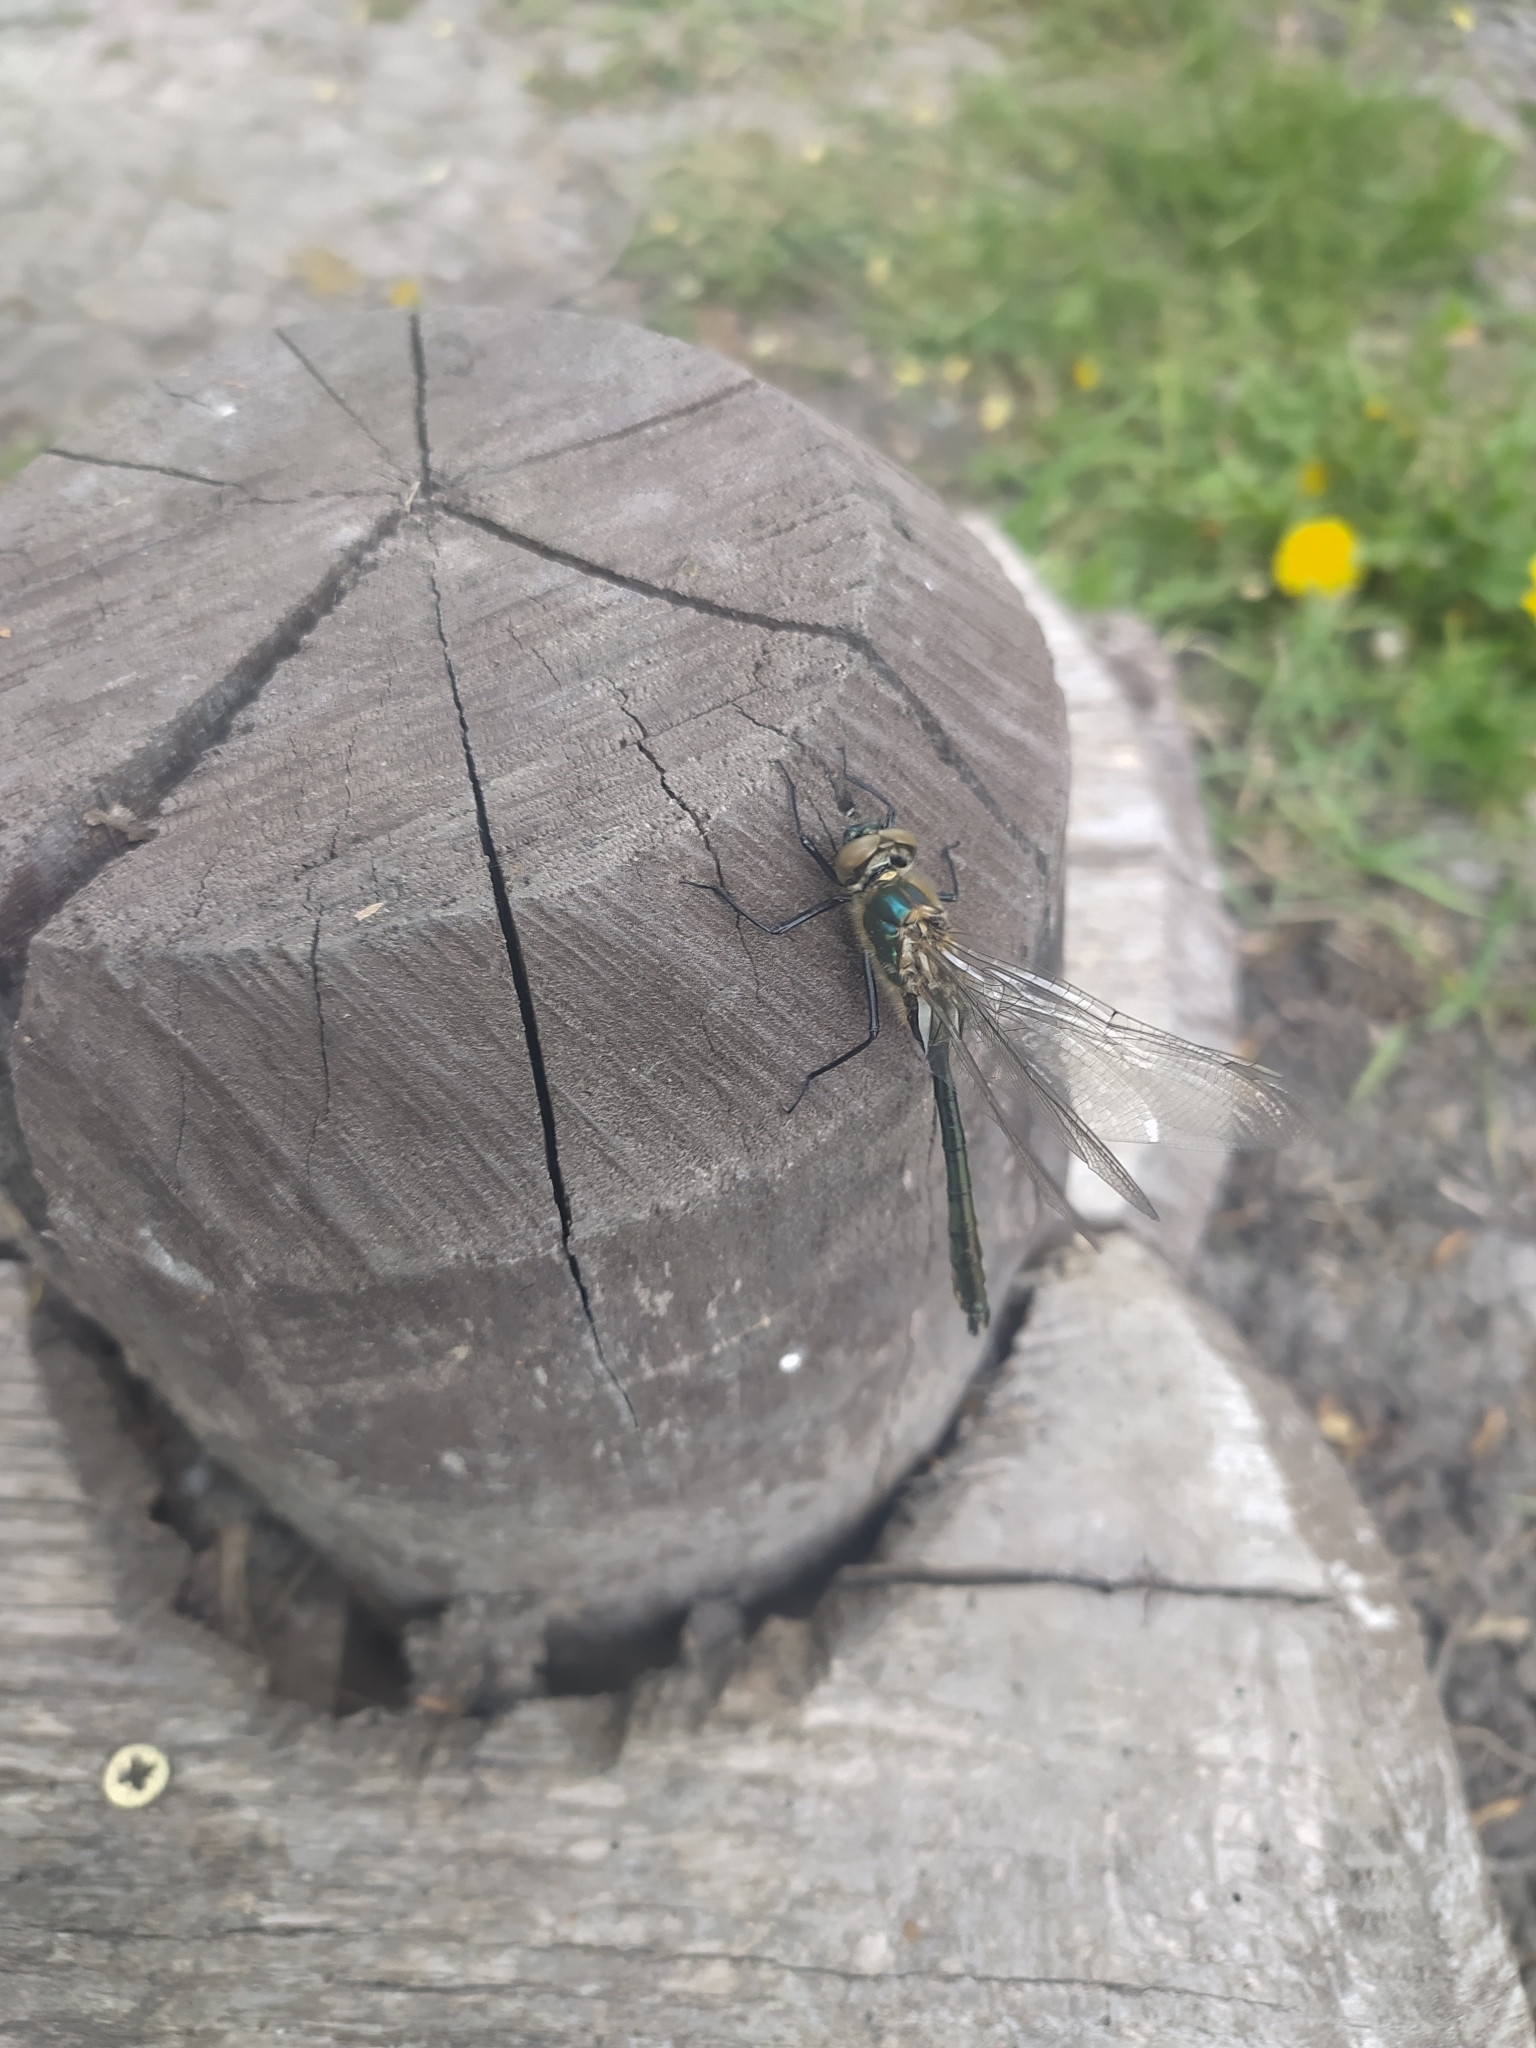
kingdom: Animalia
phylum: Arthropoda
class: Insecta
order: Odonata
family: Corduliidae
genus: Cordulia
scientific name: Cordulia aenea
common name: Downy emerald
